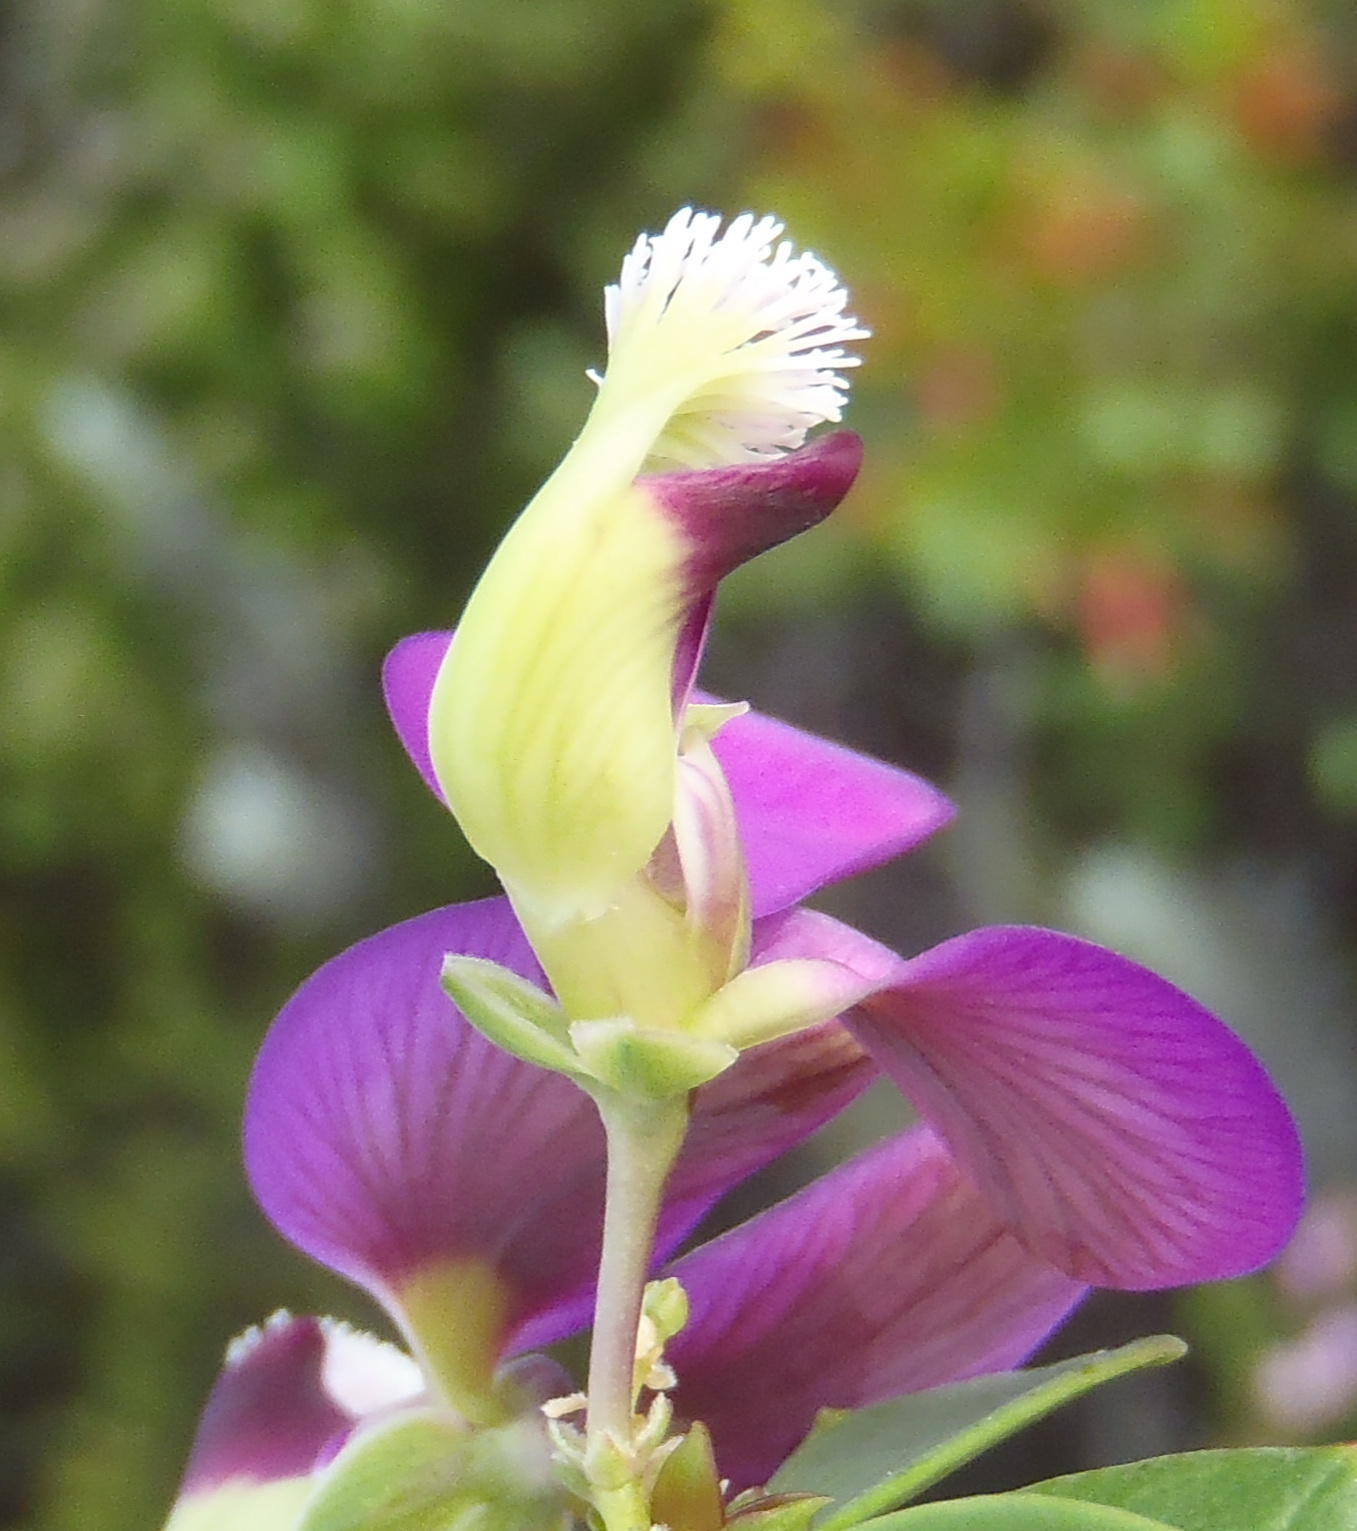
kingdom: Plantae
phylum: Tracheophyta
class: Magnoliopsida
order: Fabales
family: Polygalaceae
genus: Polygala
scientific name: Polygala fruticosa
